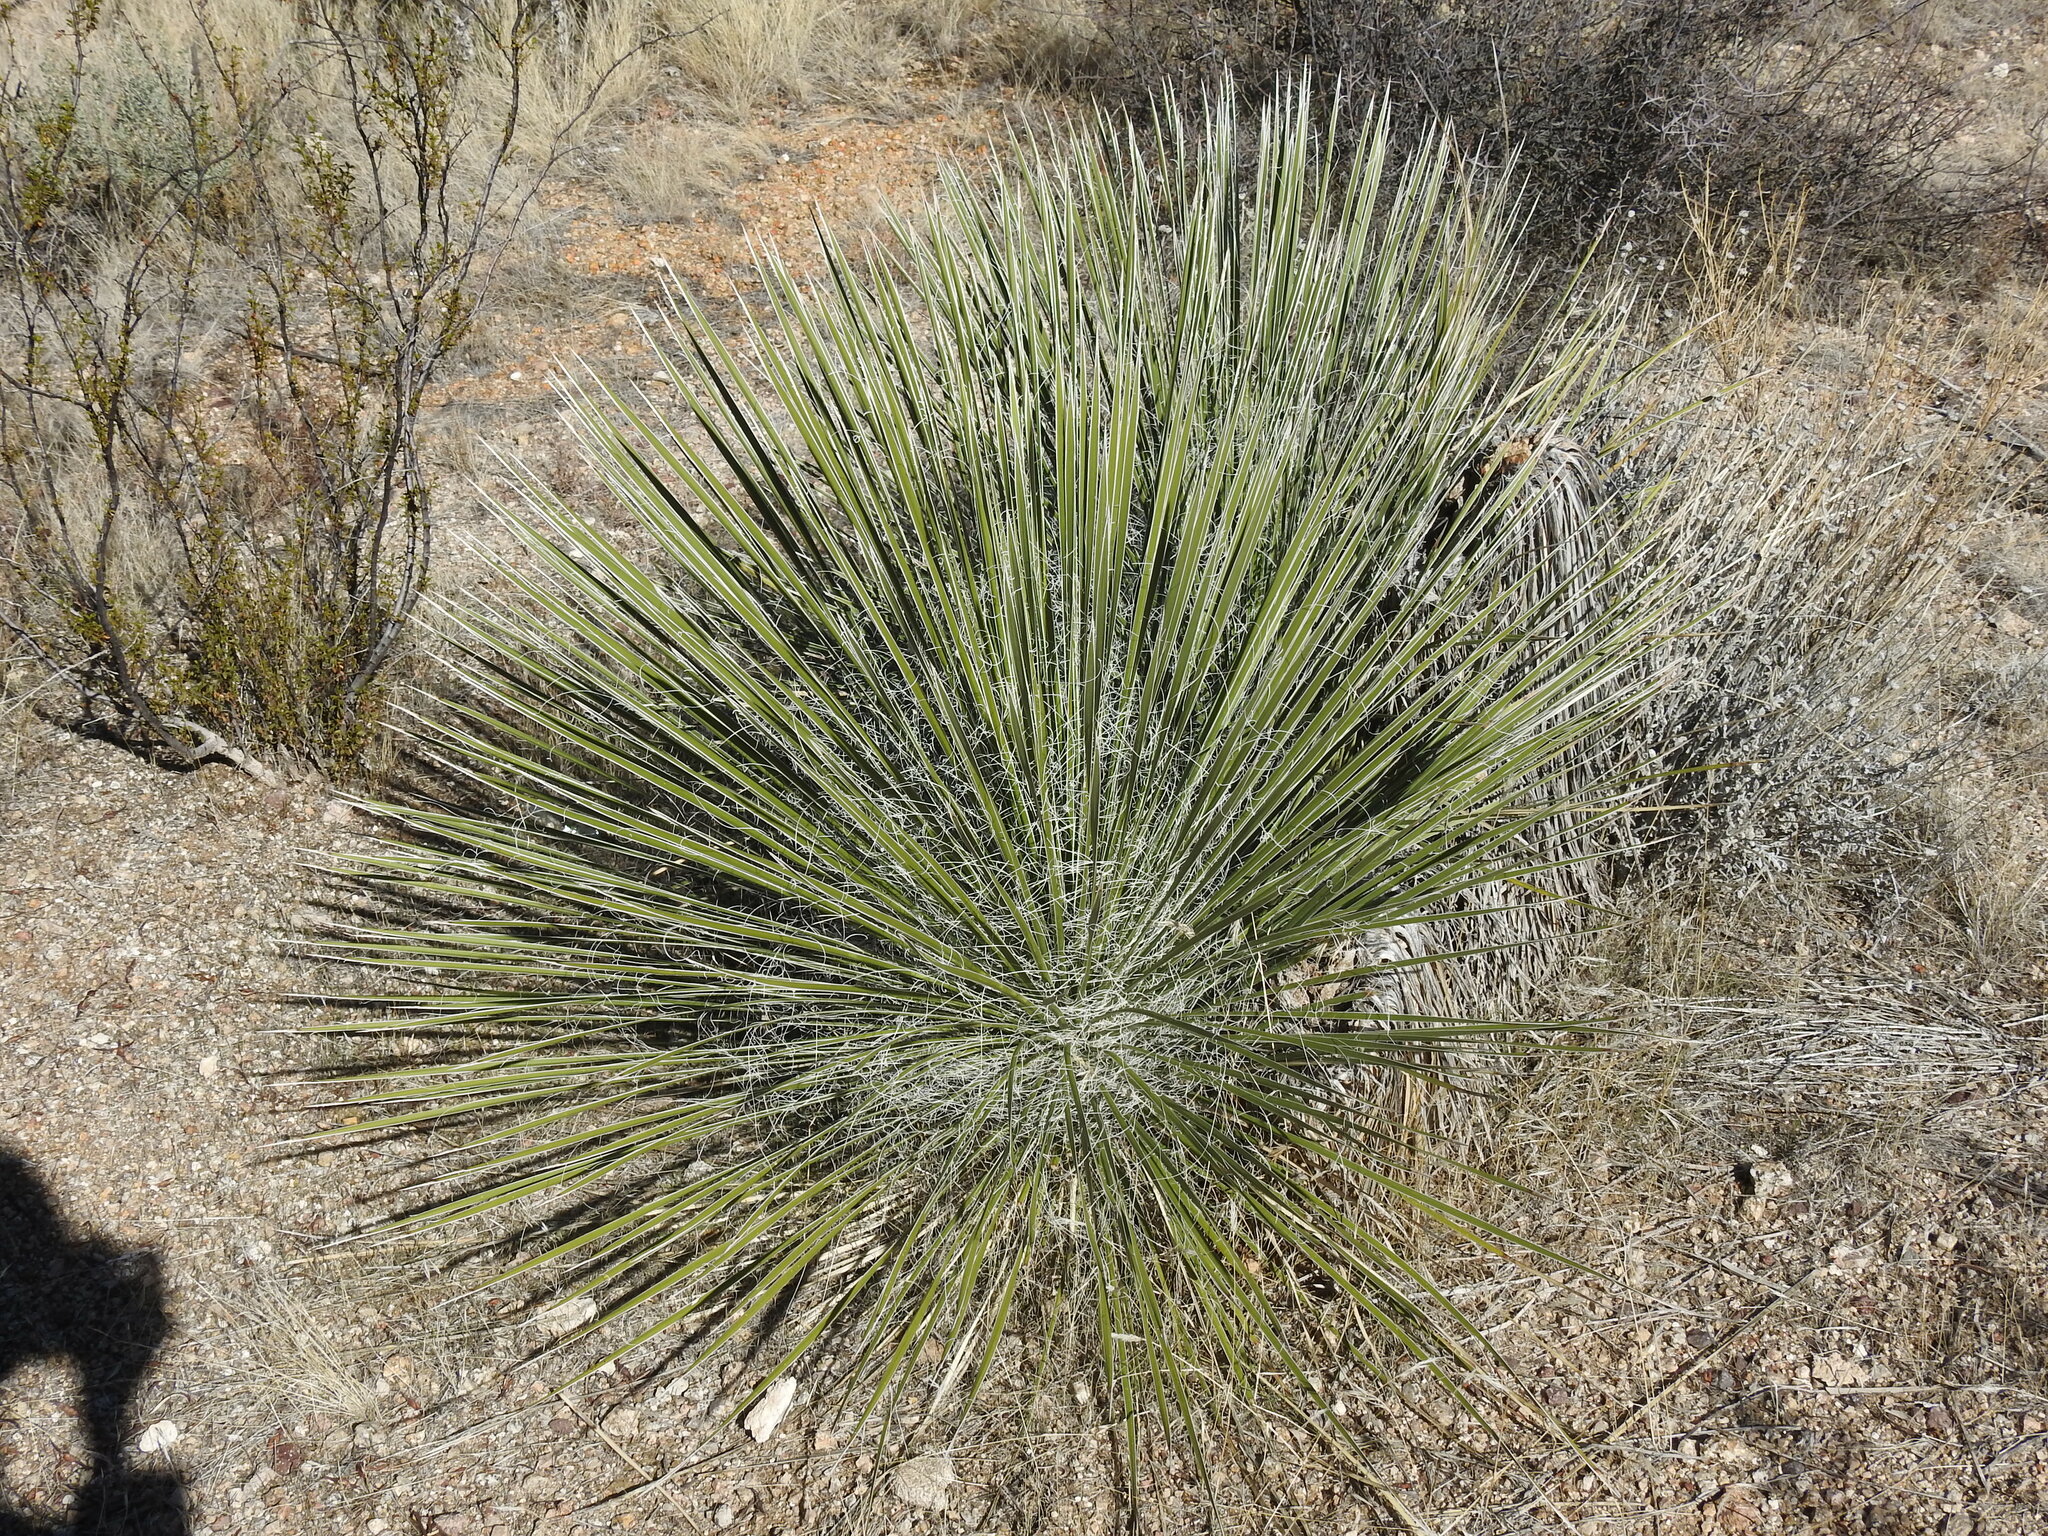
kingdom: Plantae
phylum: Tracheophyta
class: Liliopsida
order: Asparagales
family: Asparagaceae
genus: Yucca
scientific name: Yucca elata
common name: Palmella
